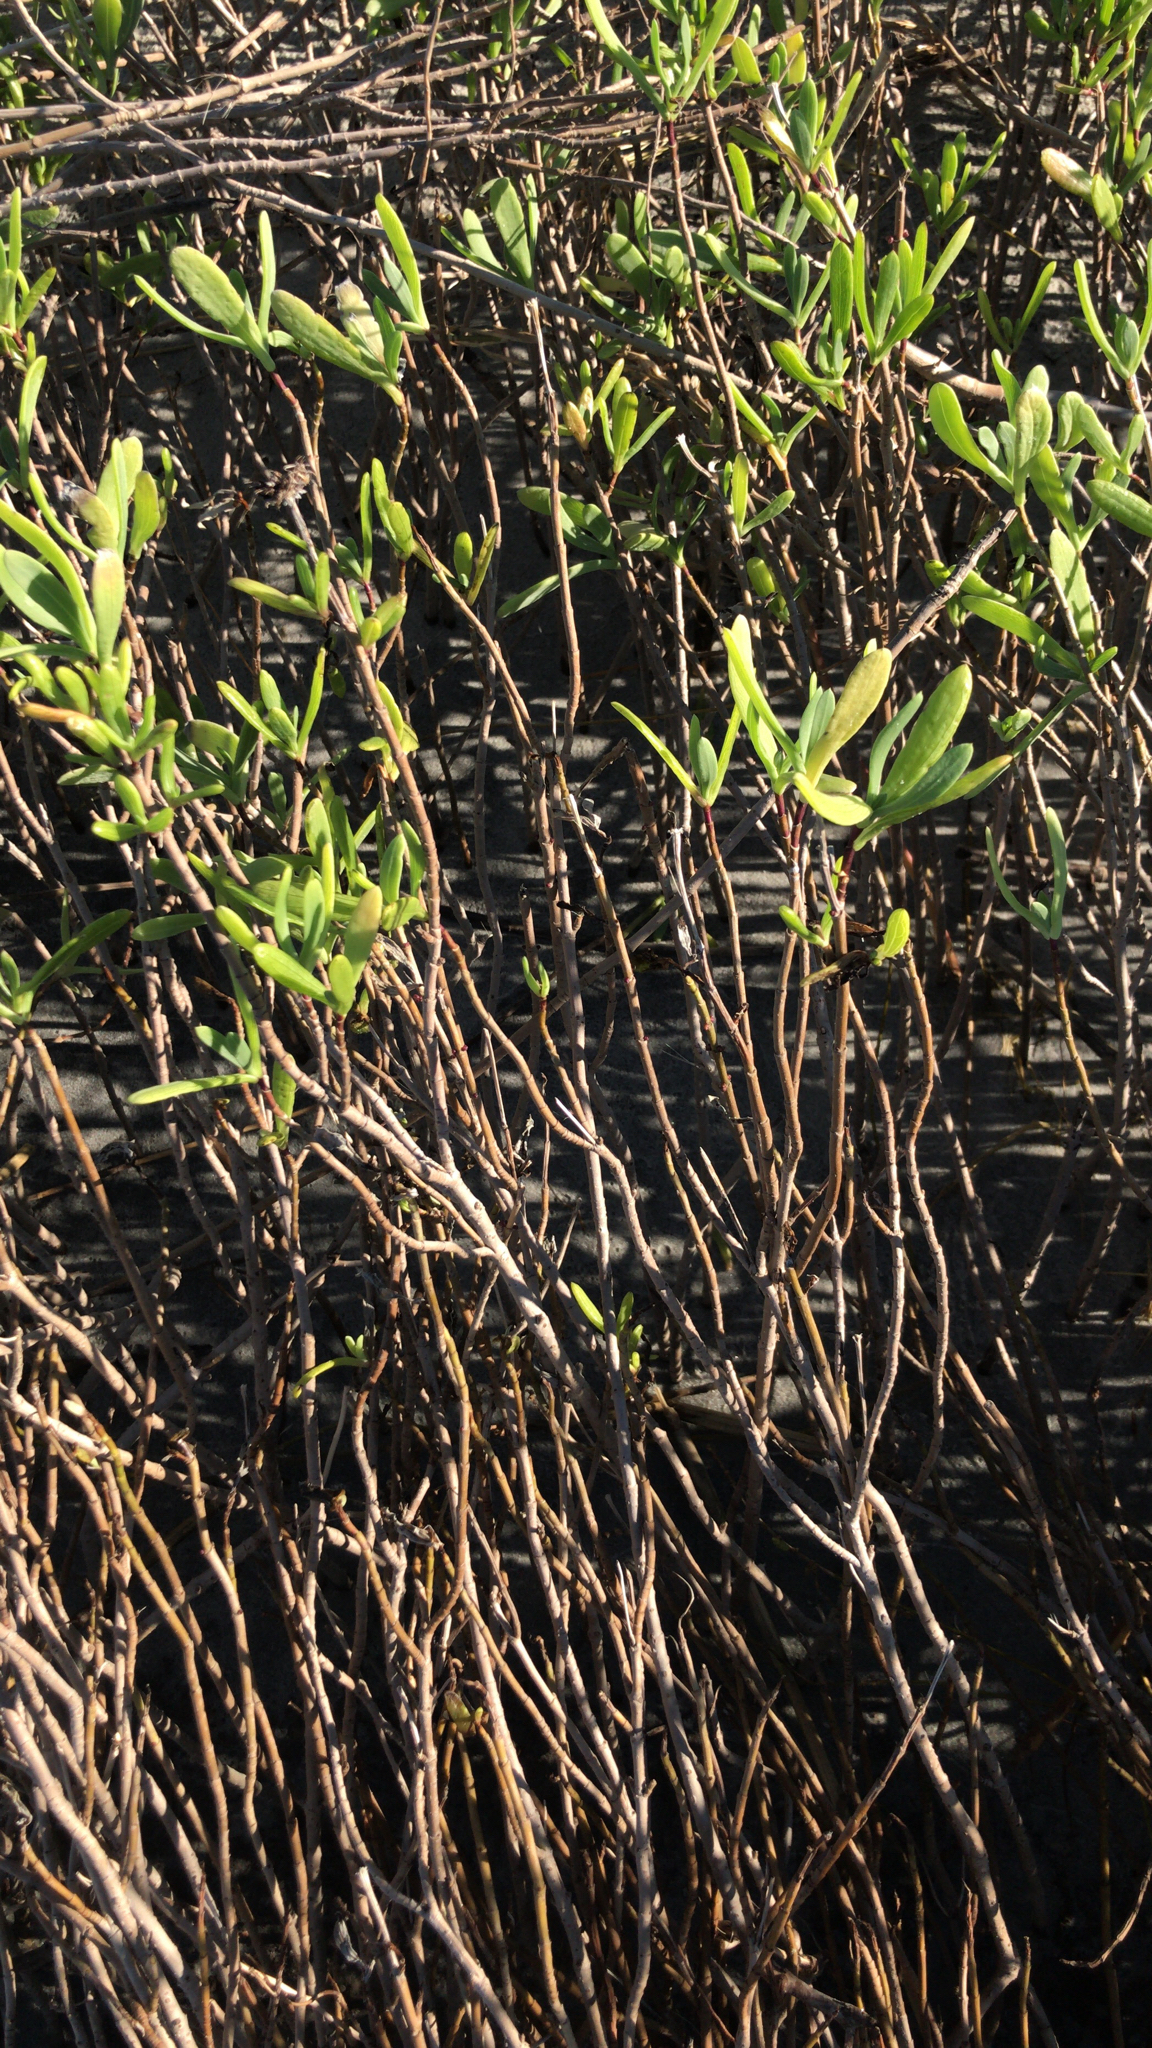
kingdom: Plantae
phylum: Tracheophyta
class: Magnoliopsida
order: Asterales
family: Asteraceae
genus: Borrichia
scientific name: Borrichia frutescens
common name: Sea oxeye
